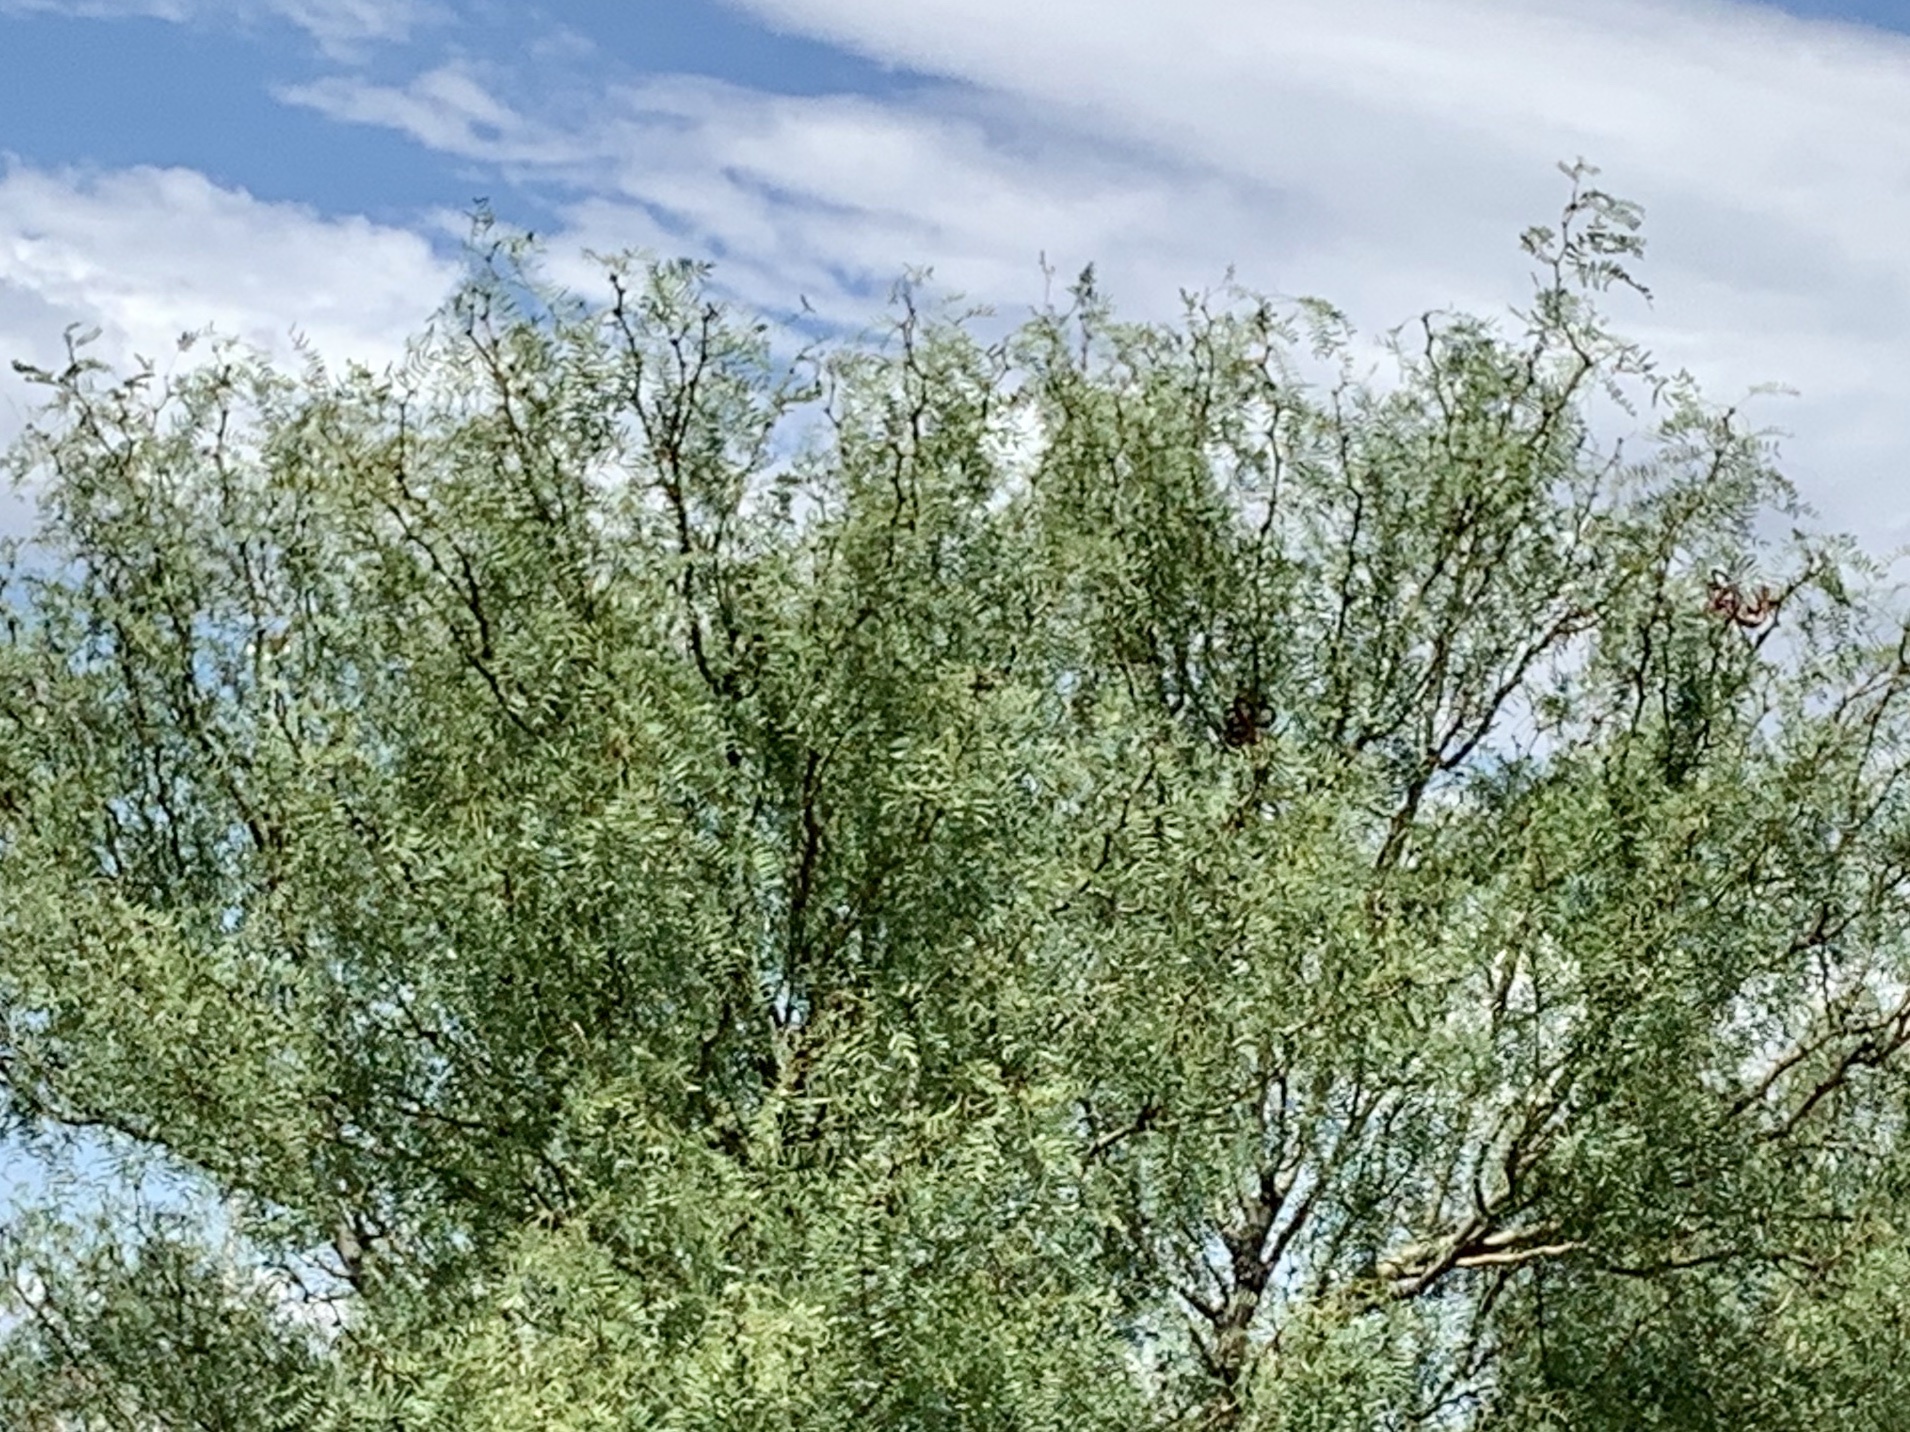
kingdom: Plantae
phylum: Tracheophyta
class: Magnoliopsida
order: Fabales
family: Fabaceae
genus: Prosopis
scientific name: Prosopis glandulosa
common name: Honey mesquite
